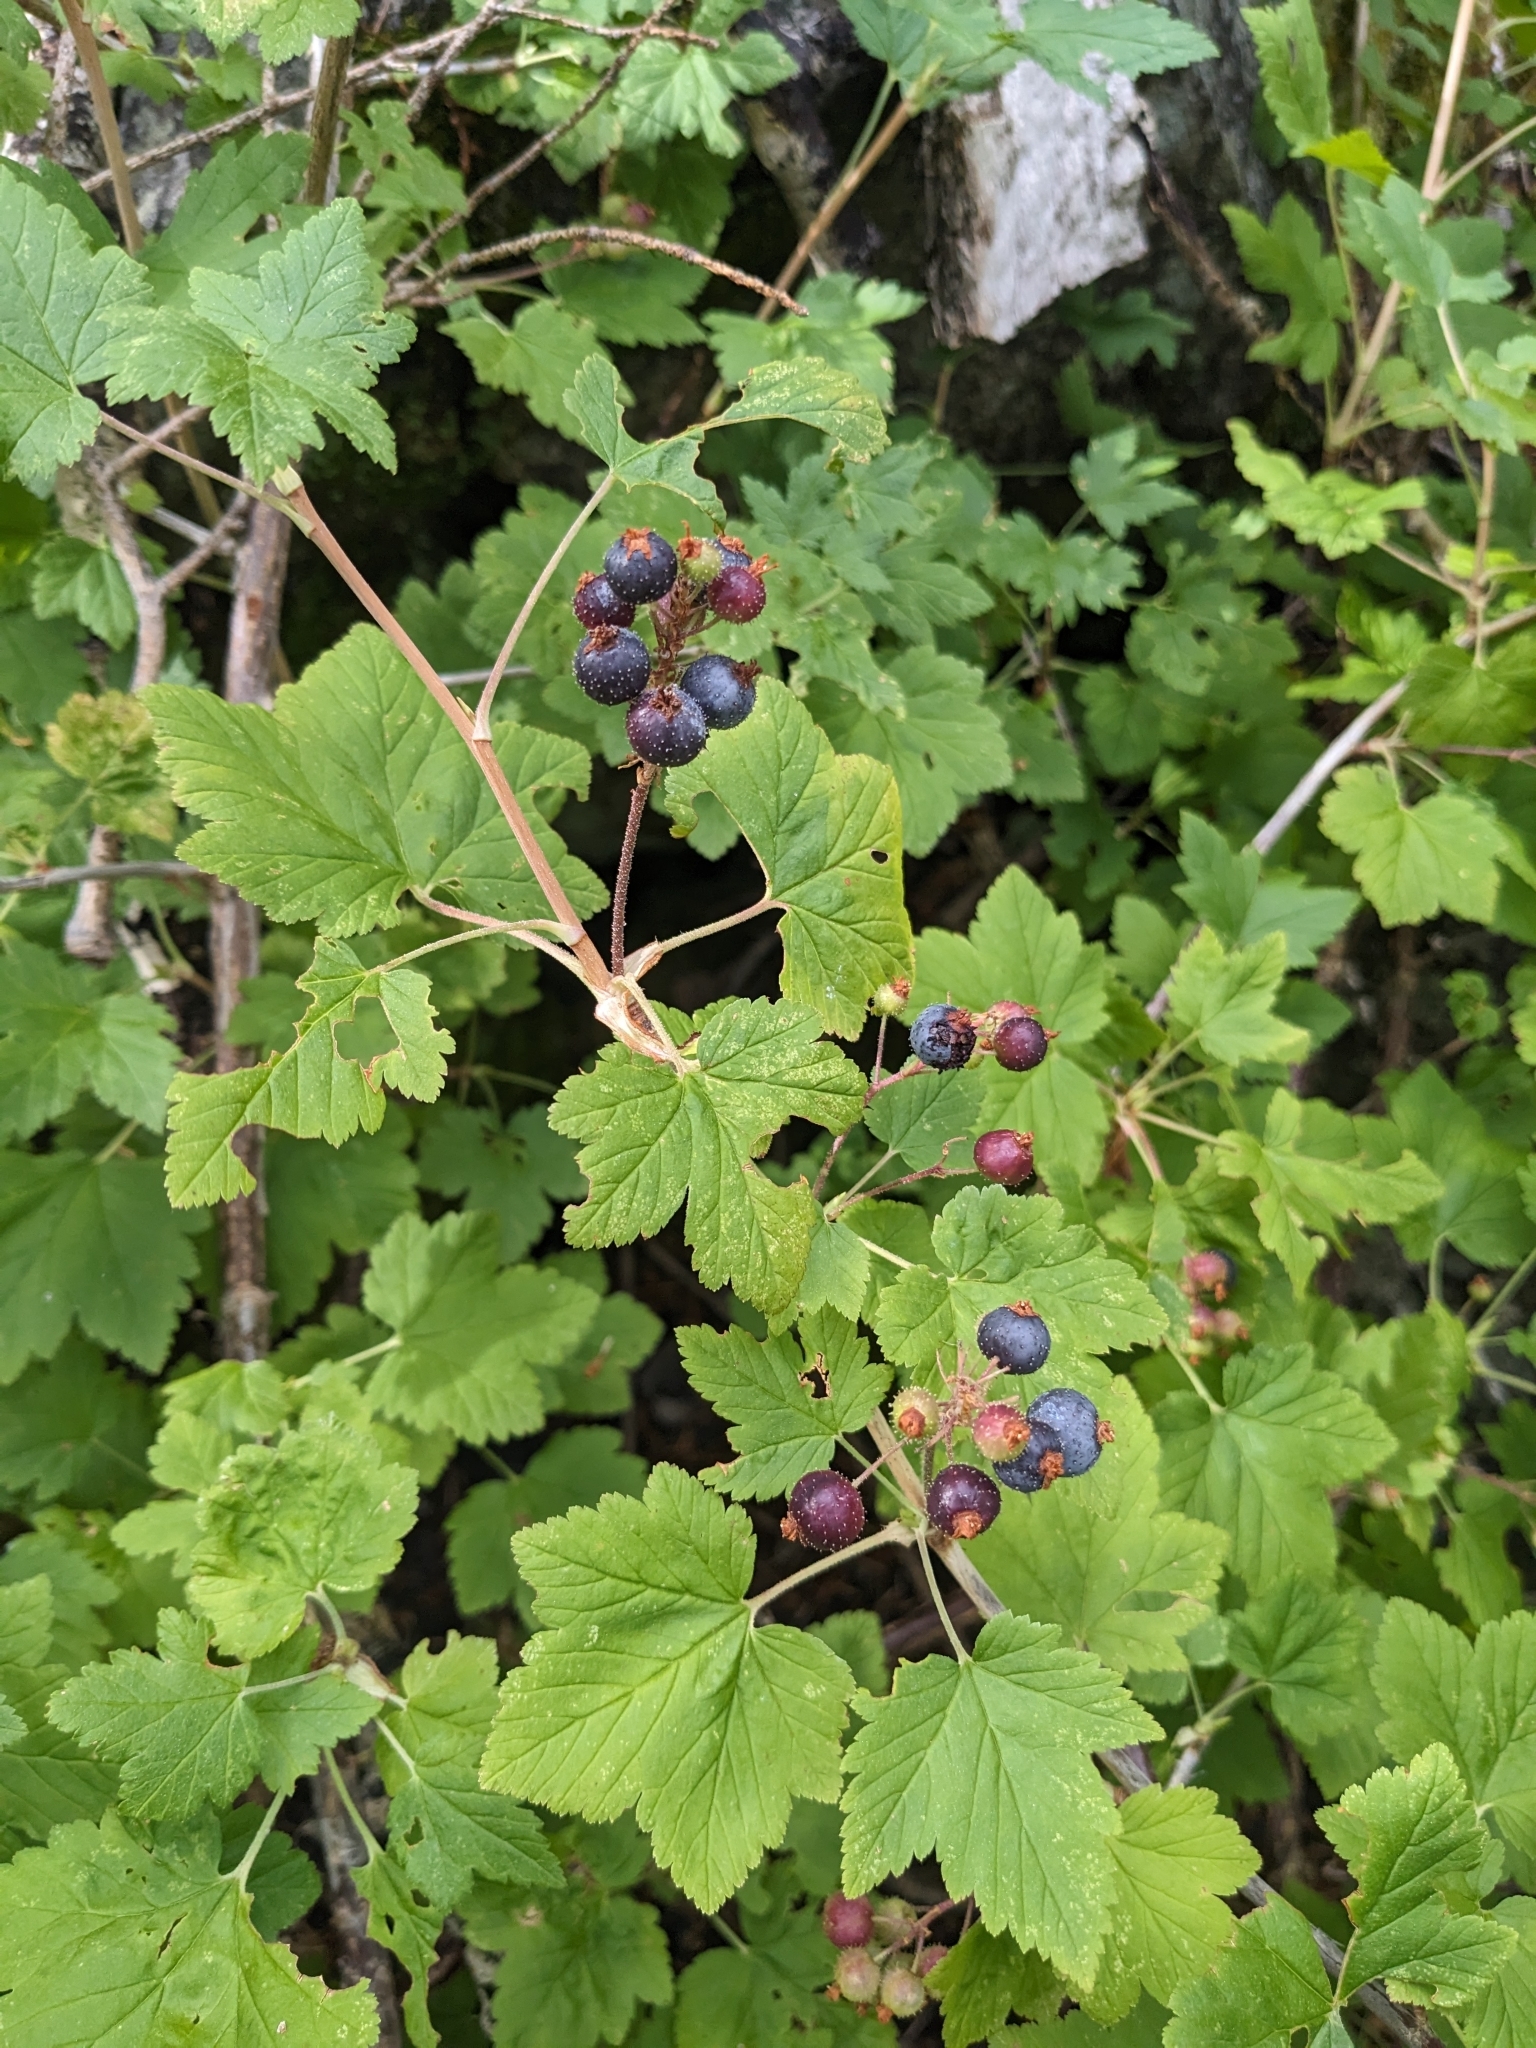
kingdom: Plantae
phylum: Tracheophyta
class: Magnoliopsida
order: Saxifragales
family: Grossulariaceae
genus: Ribes
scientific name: Ribes wolfii
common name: Rothrock currant
